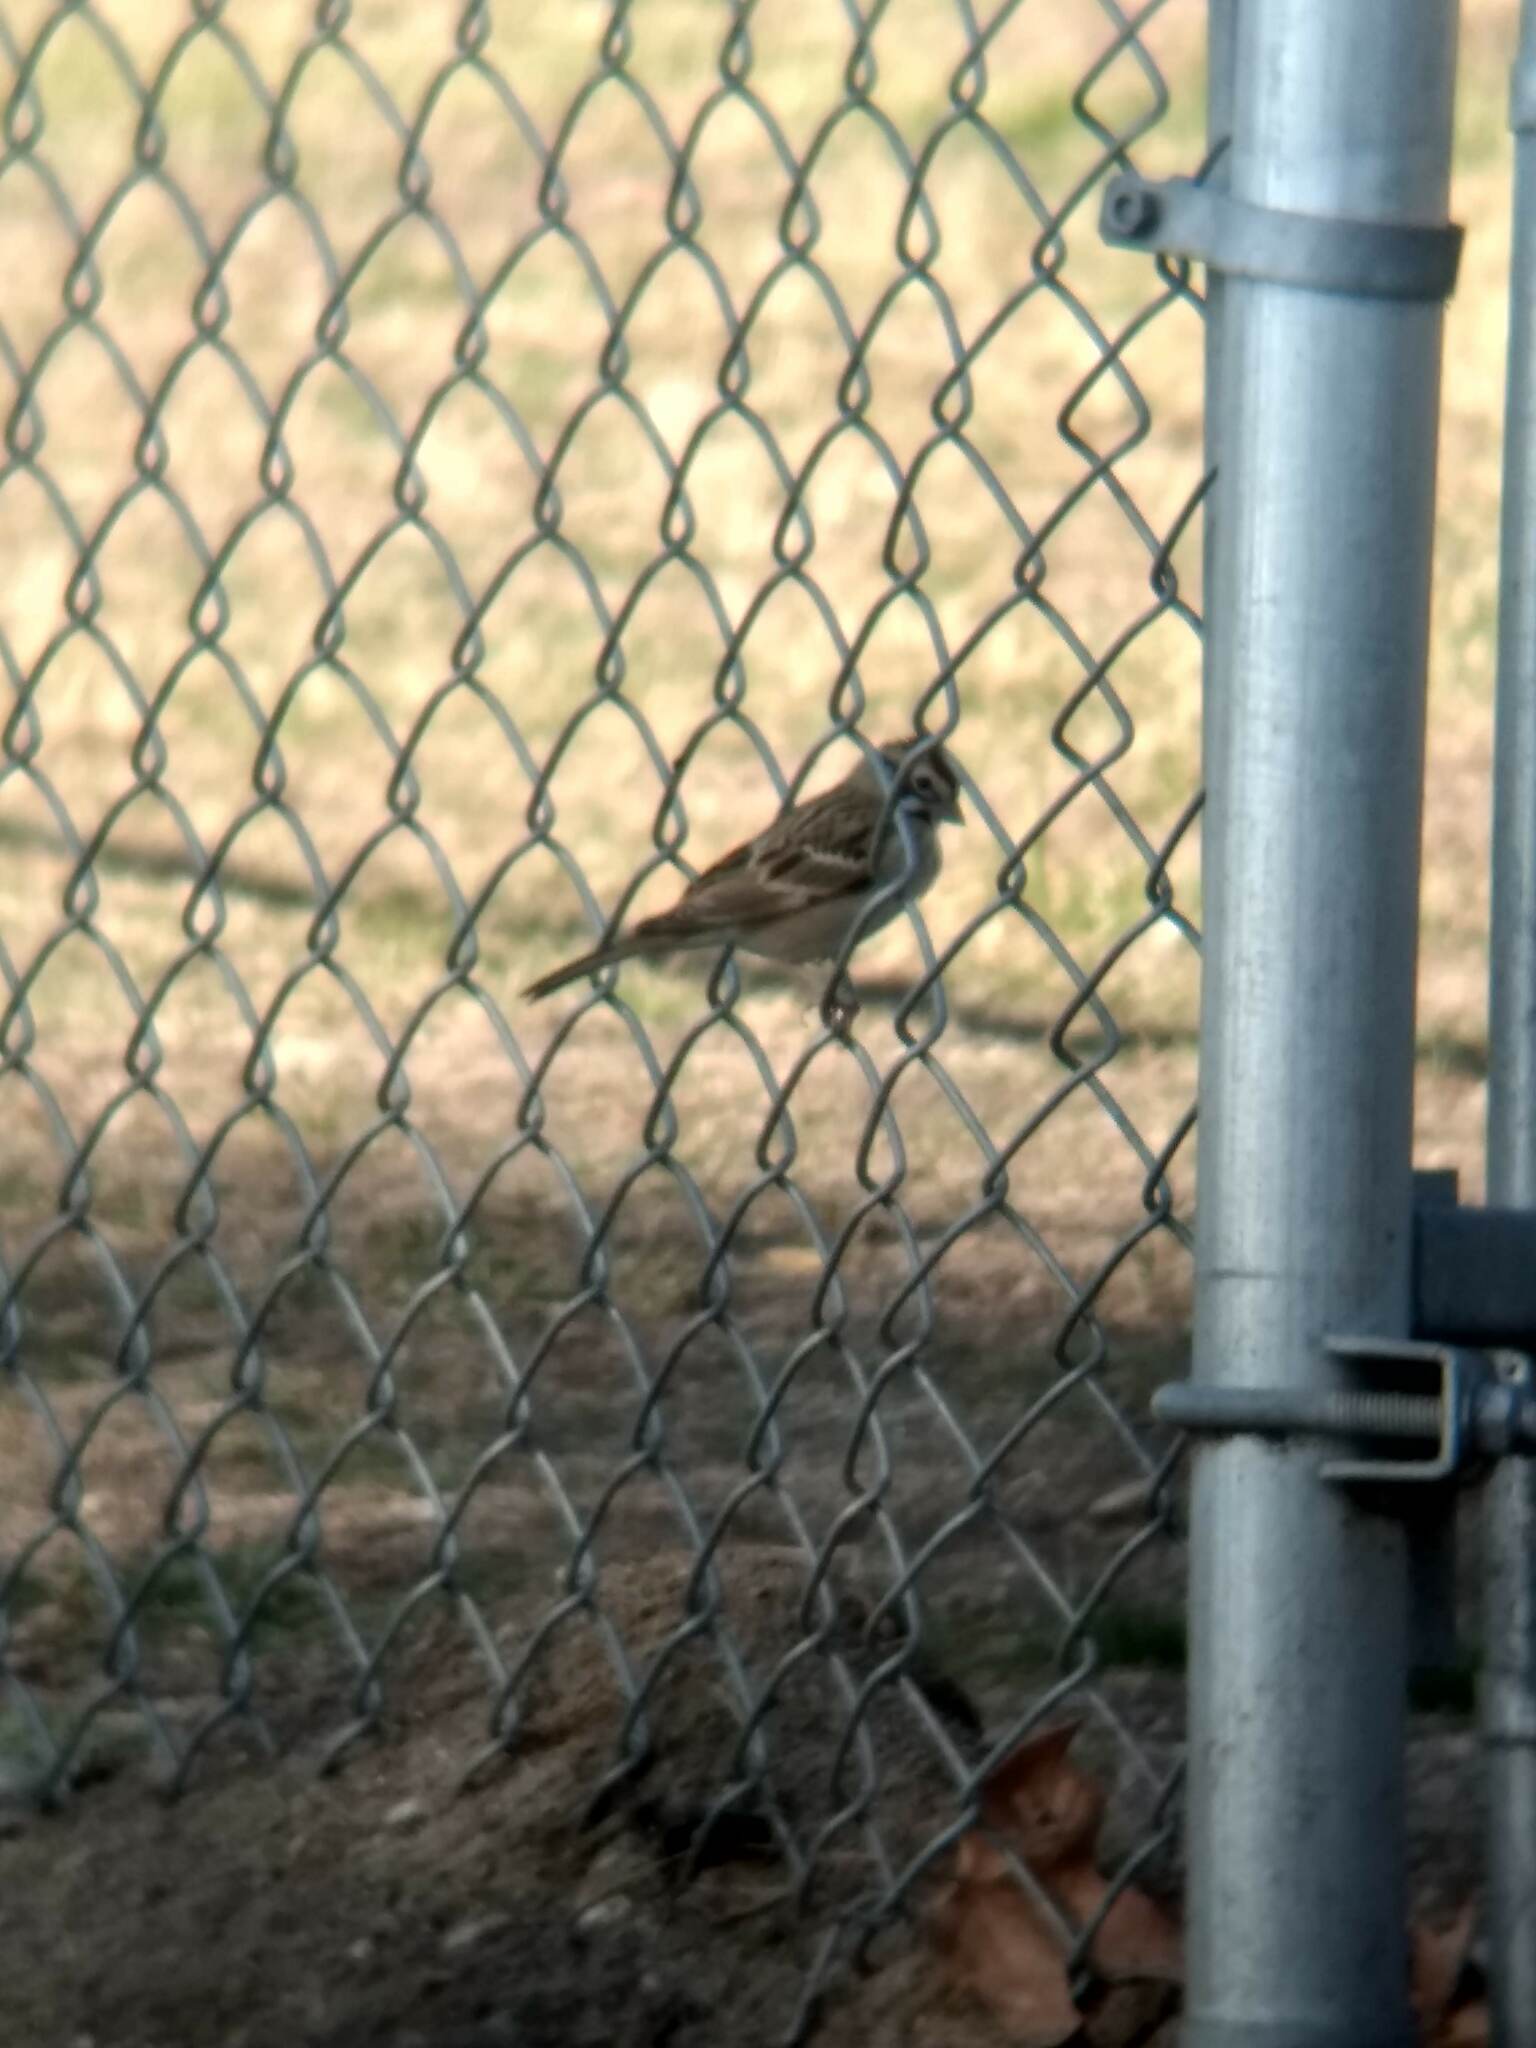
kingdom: Animalia
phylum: Chordata
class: Aves
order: Passeriformes
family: Passerellidae
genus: Chondestes
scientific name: Chondestes grammacus
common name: Lark sparrow
